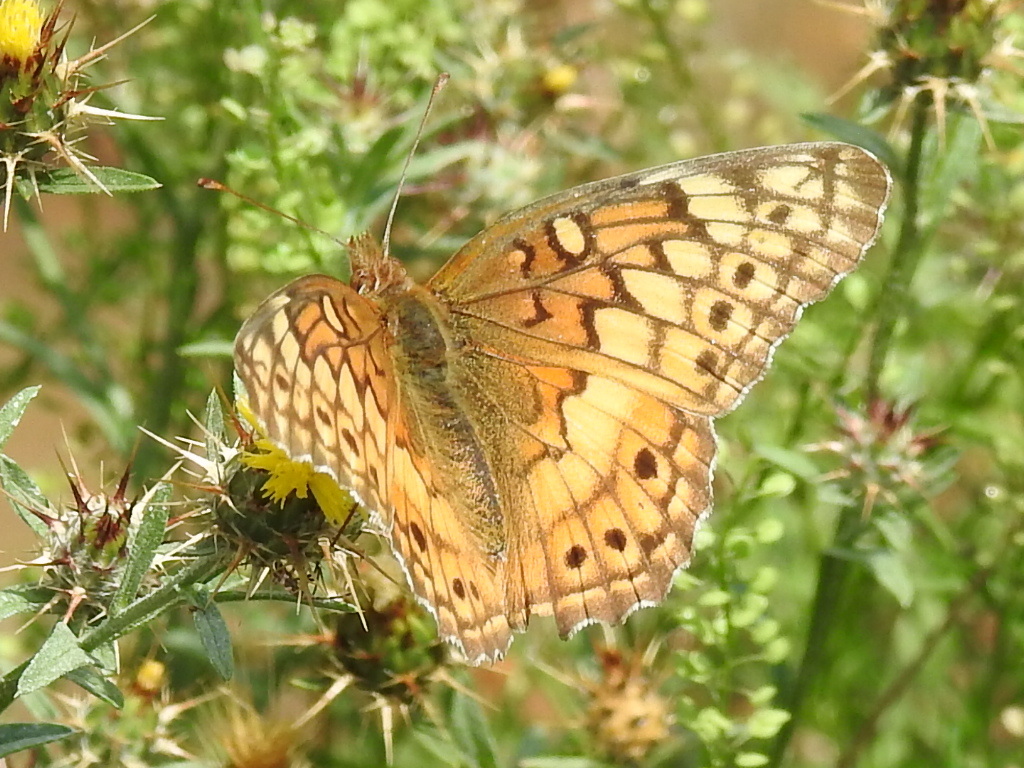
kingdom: Animalia
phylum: Arthropoda
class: Insecta
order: Lepidoptera
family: Nymphalidae
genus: Euptoieta
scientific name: Euptoieta claudia
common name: Variegated fritillary
